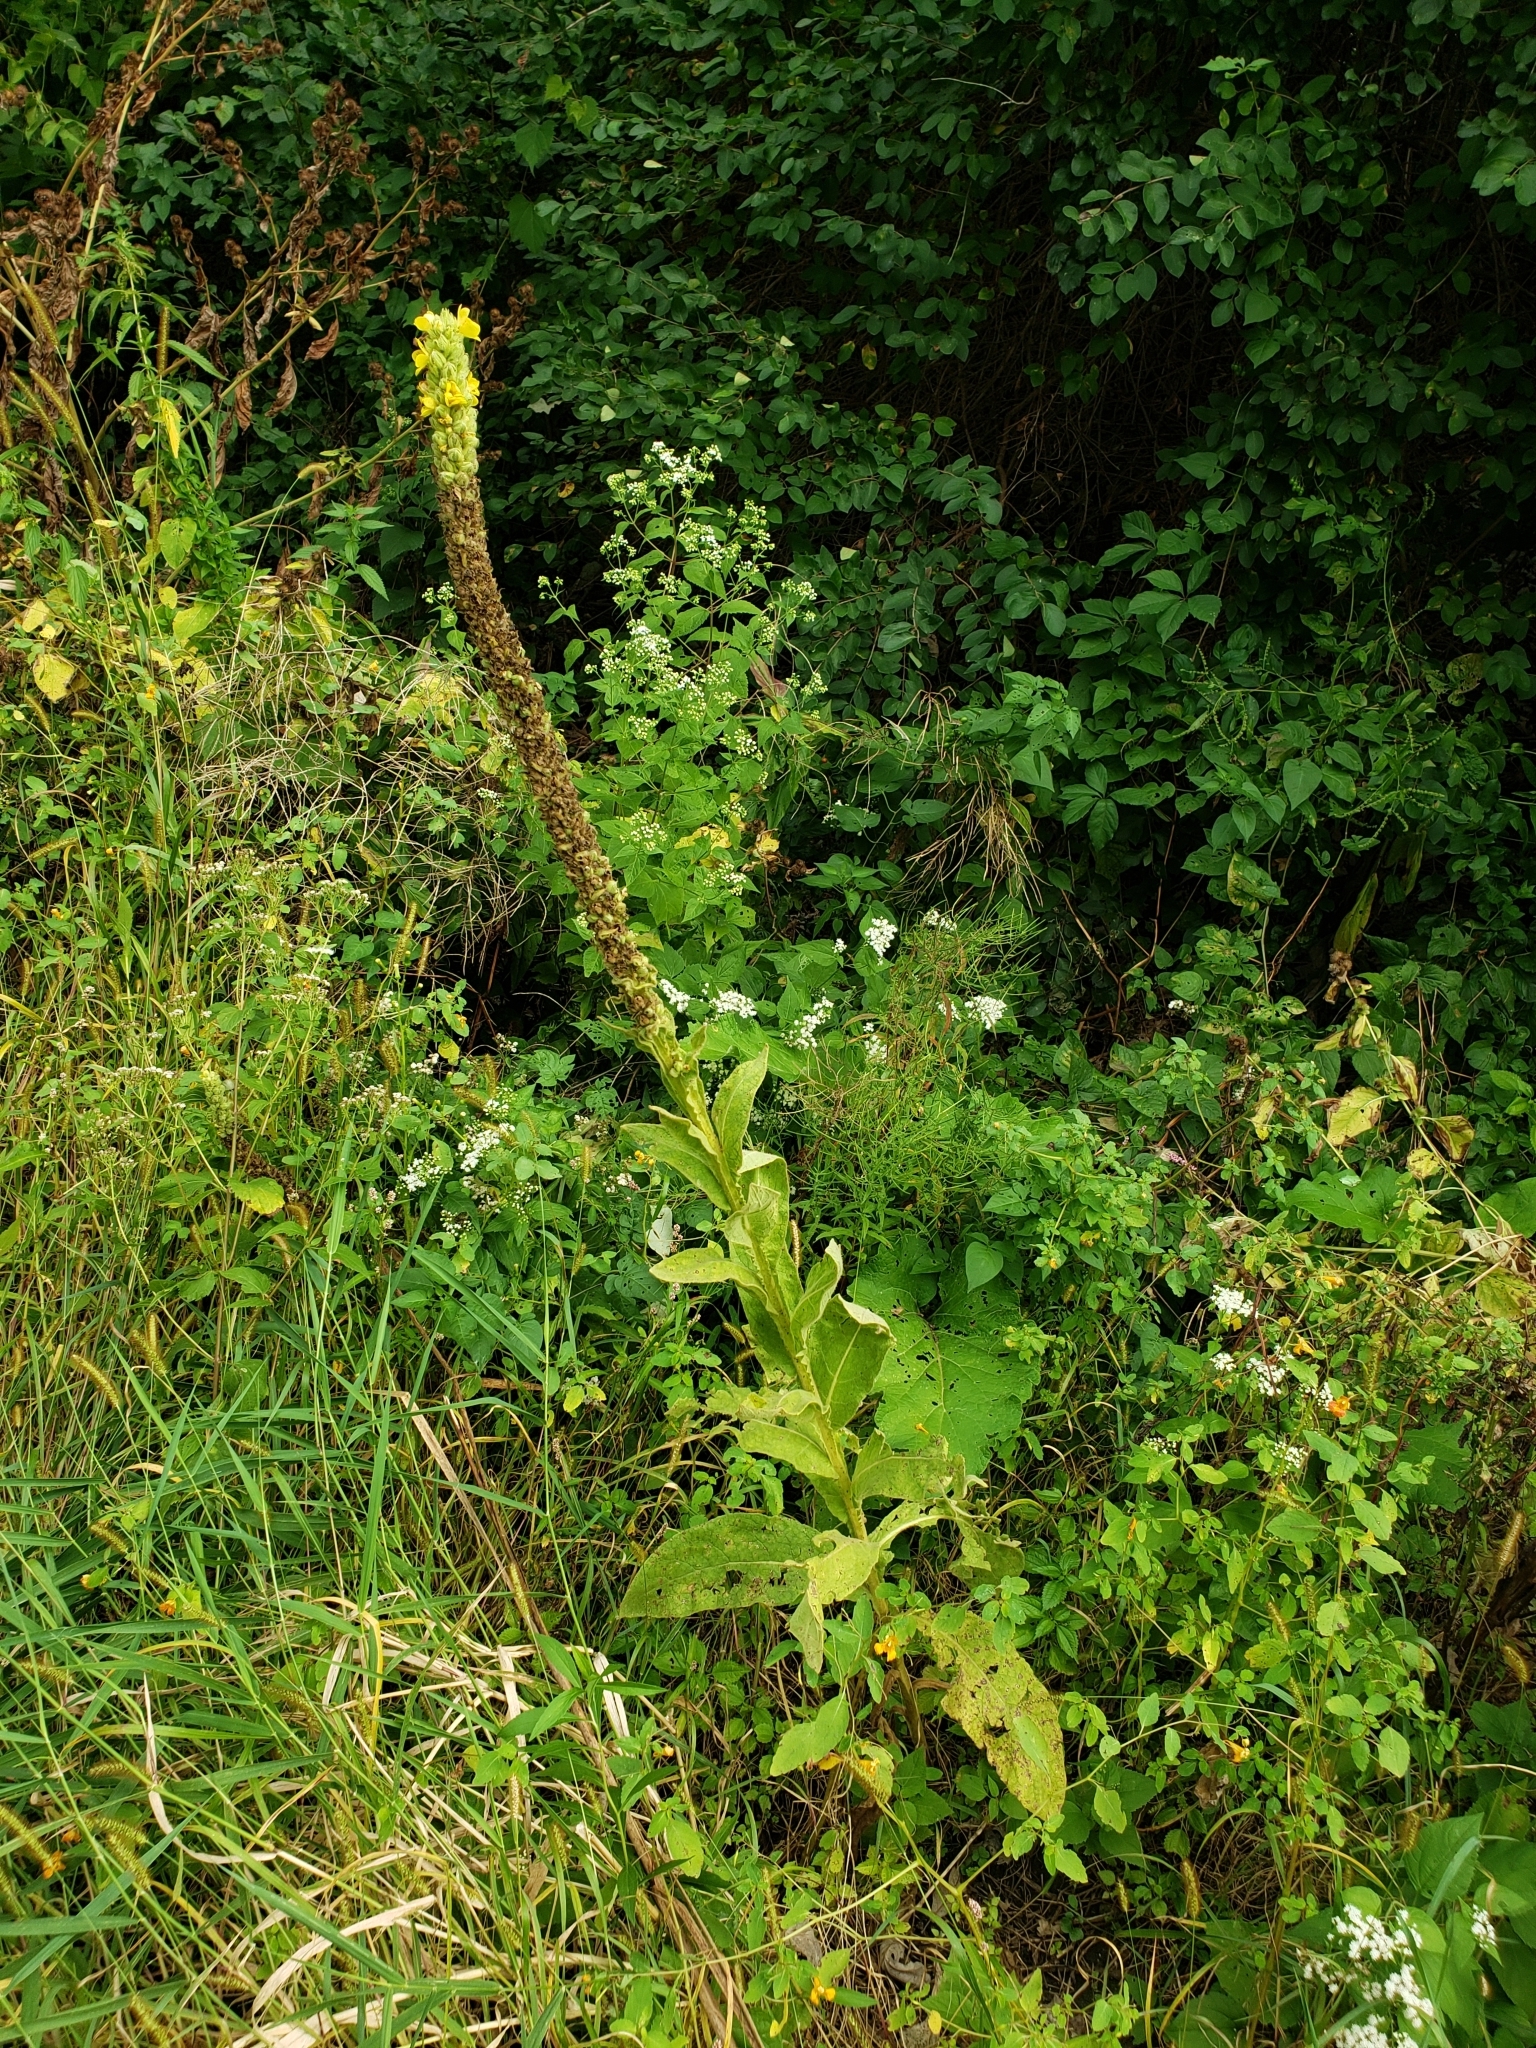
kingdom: Plantae
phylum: Tracheophyta
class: Magnoliopsida
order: Lamiales
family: Scrophulariaceae
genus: Verbascum
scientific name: Verbascum thapsus
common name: Common mullein
